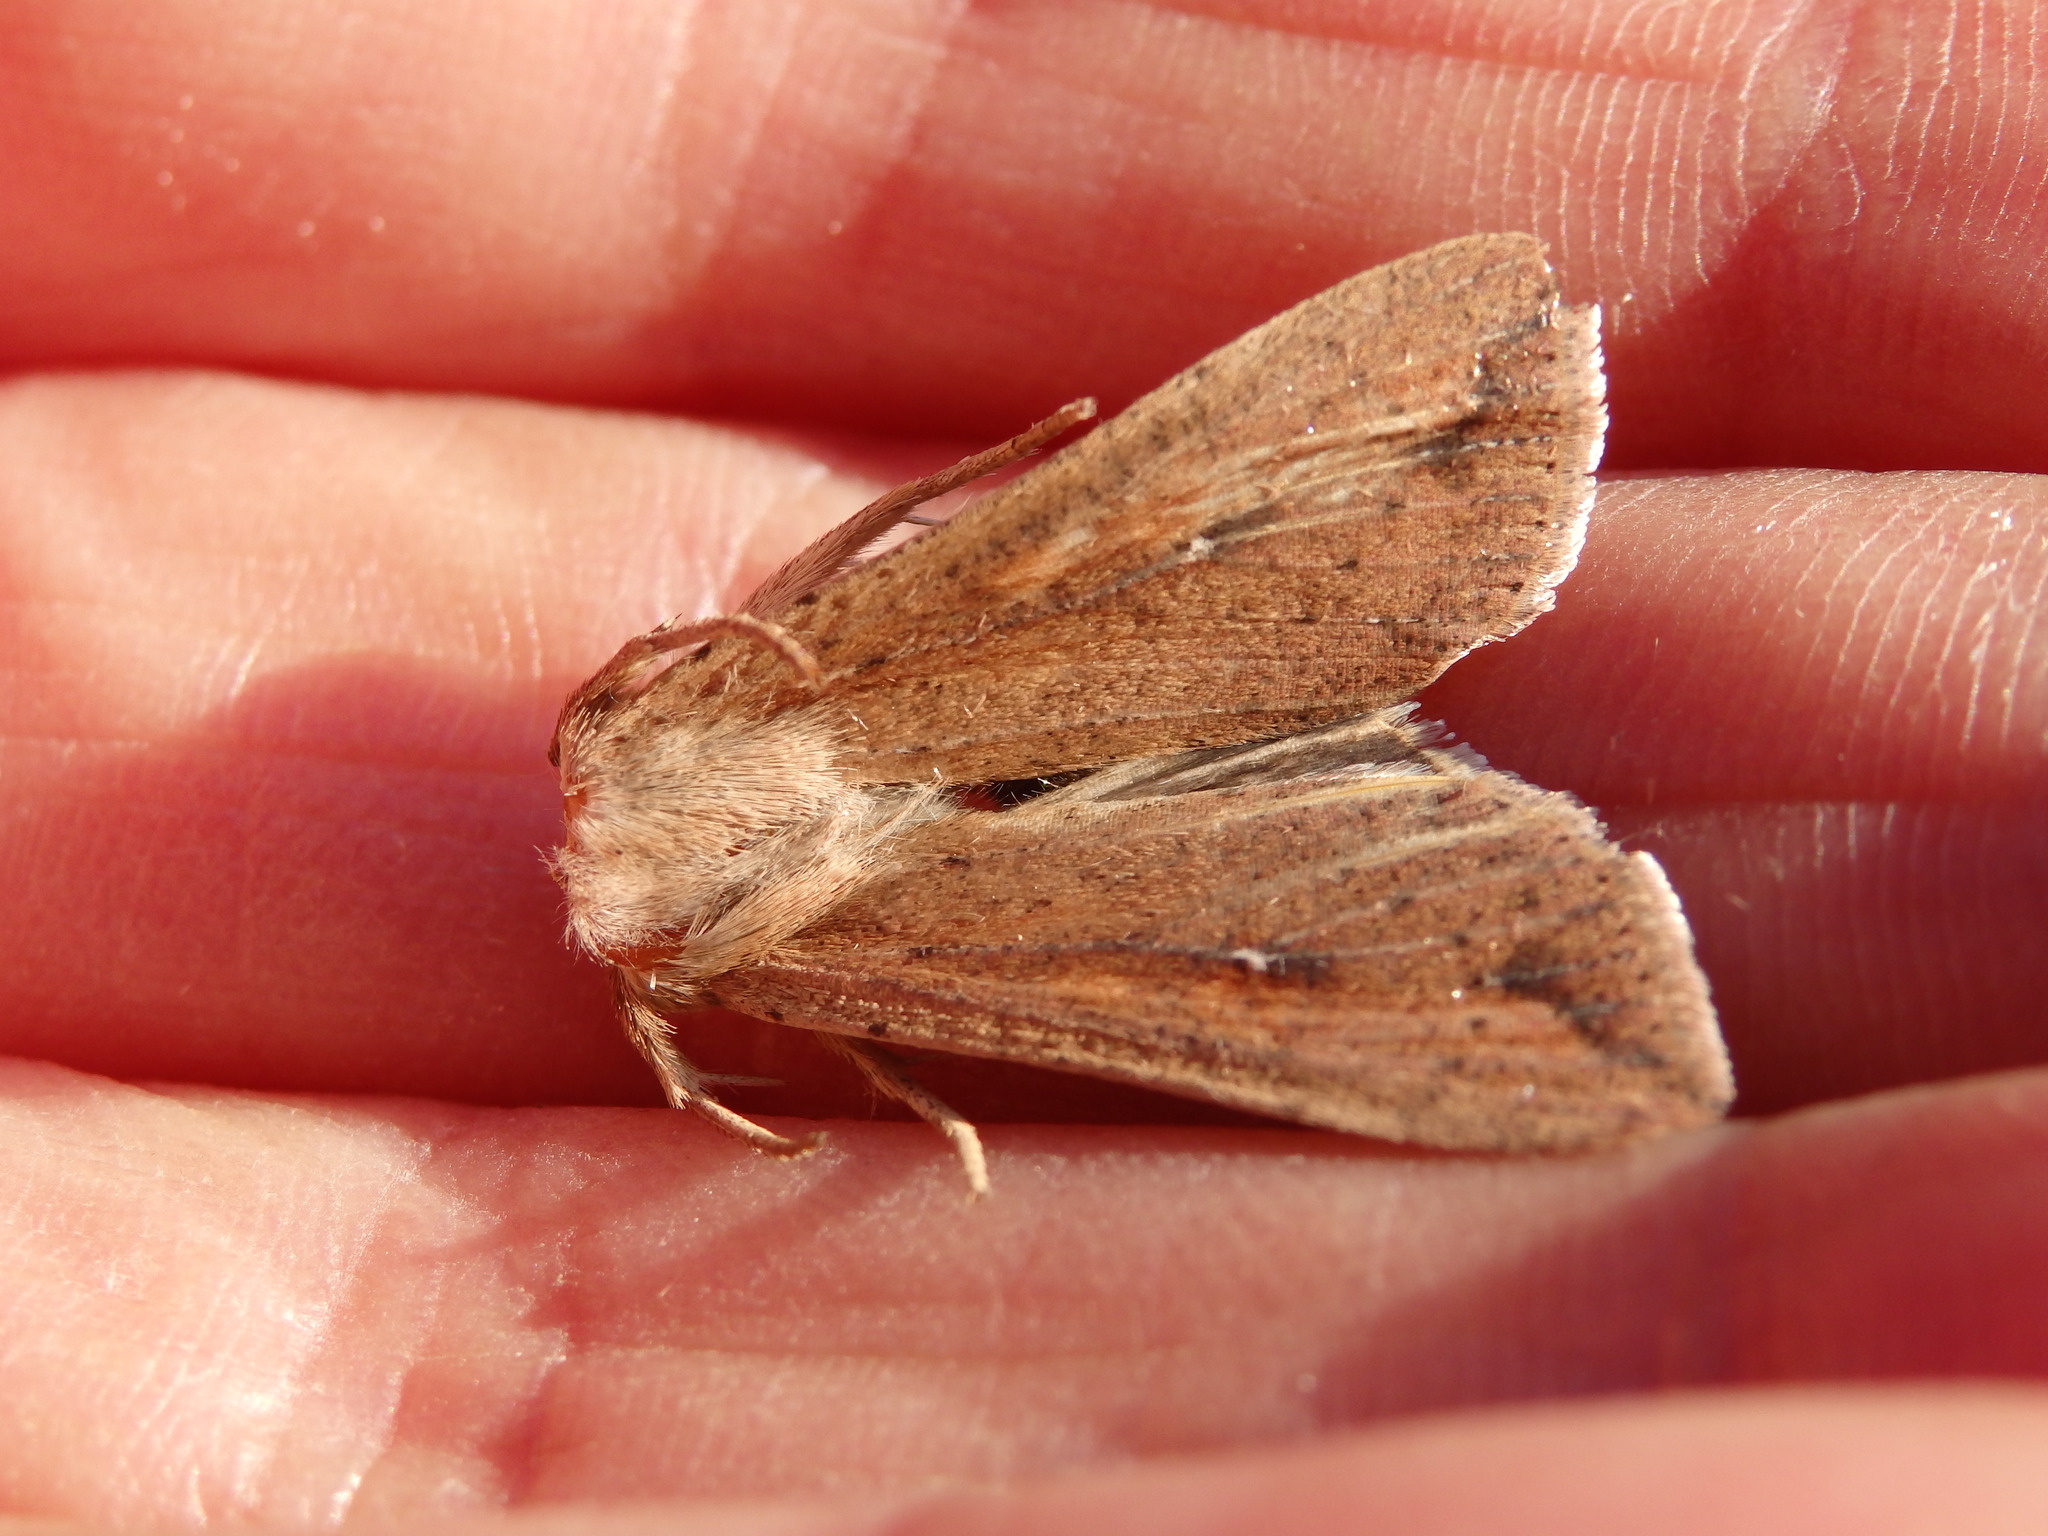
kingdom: Animalia
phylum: Arthropoda
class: Insecta
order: Lepidoptera
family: Noctuidae
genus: Mythimna
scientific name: Mythimna unipuncta
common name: White-speck
